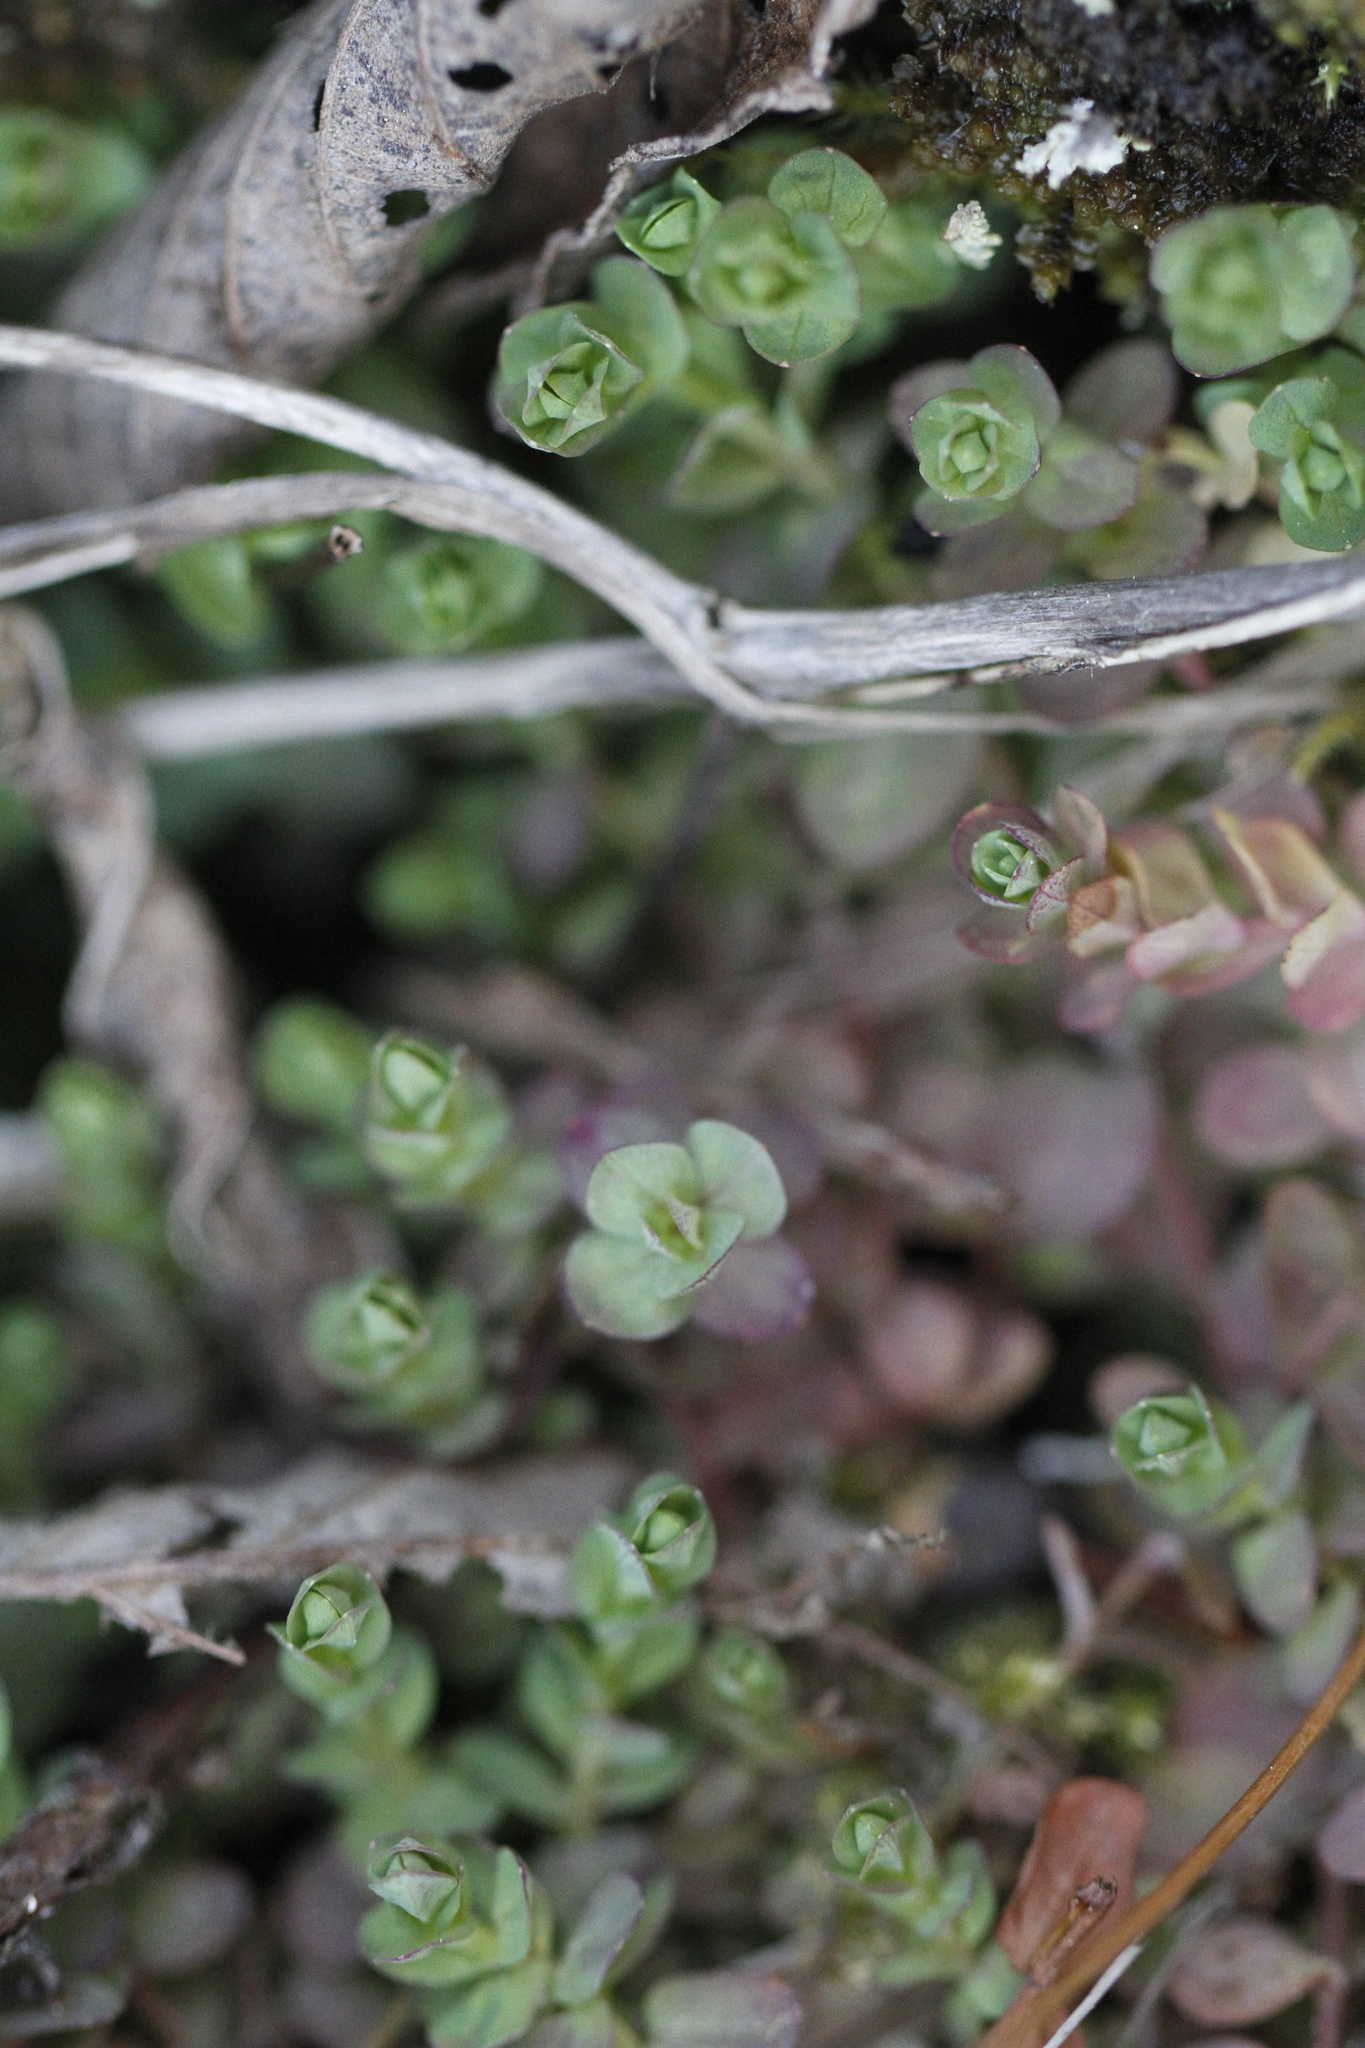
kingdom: Plantae
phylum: Tracheophyta
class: Magnoliopsida
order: Malpighiales
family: Hypericaceae
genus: Hypericum
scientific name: Hypericum anagalloides
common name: Bog st. john's-wort
